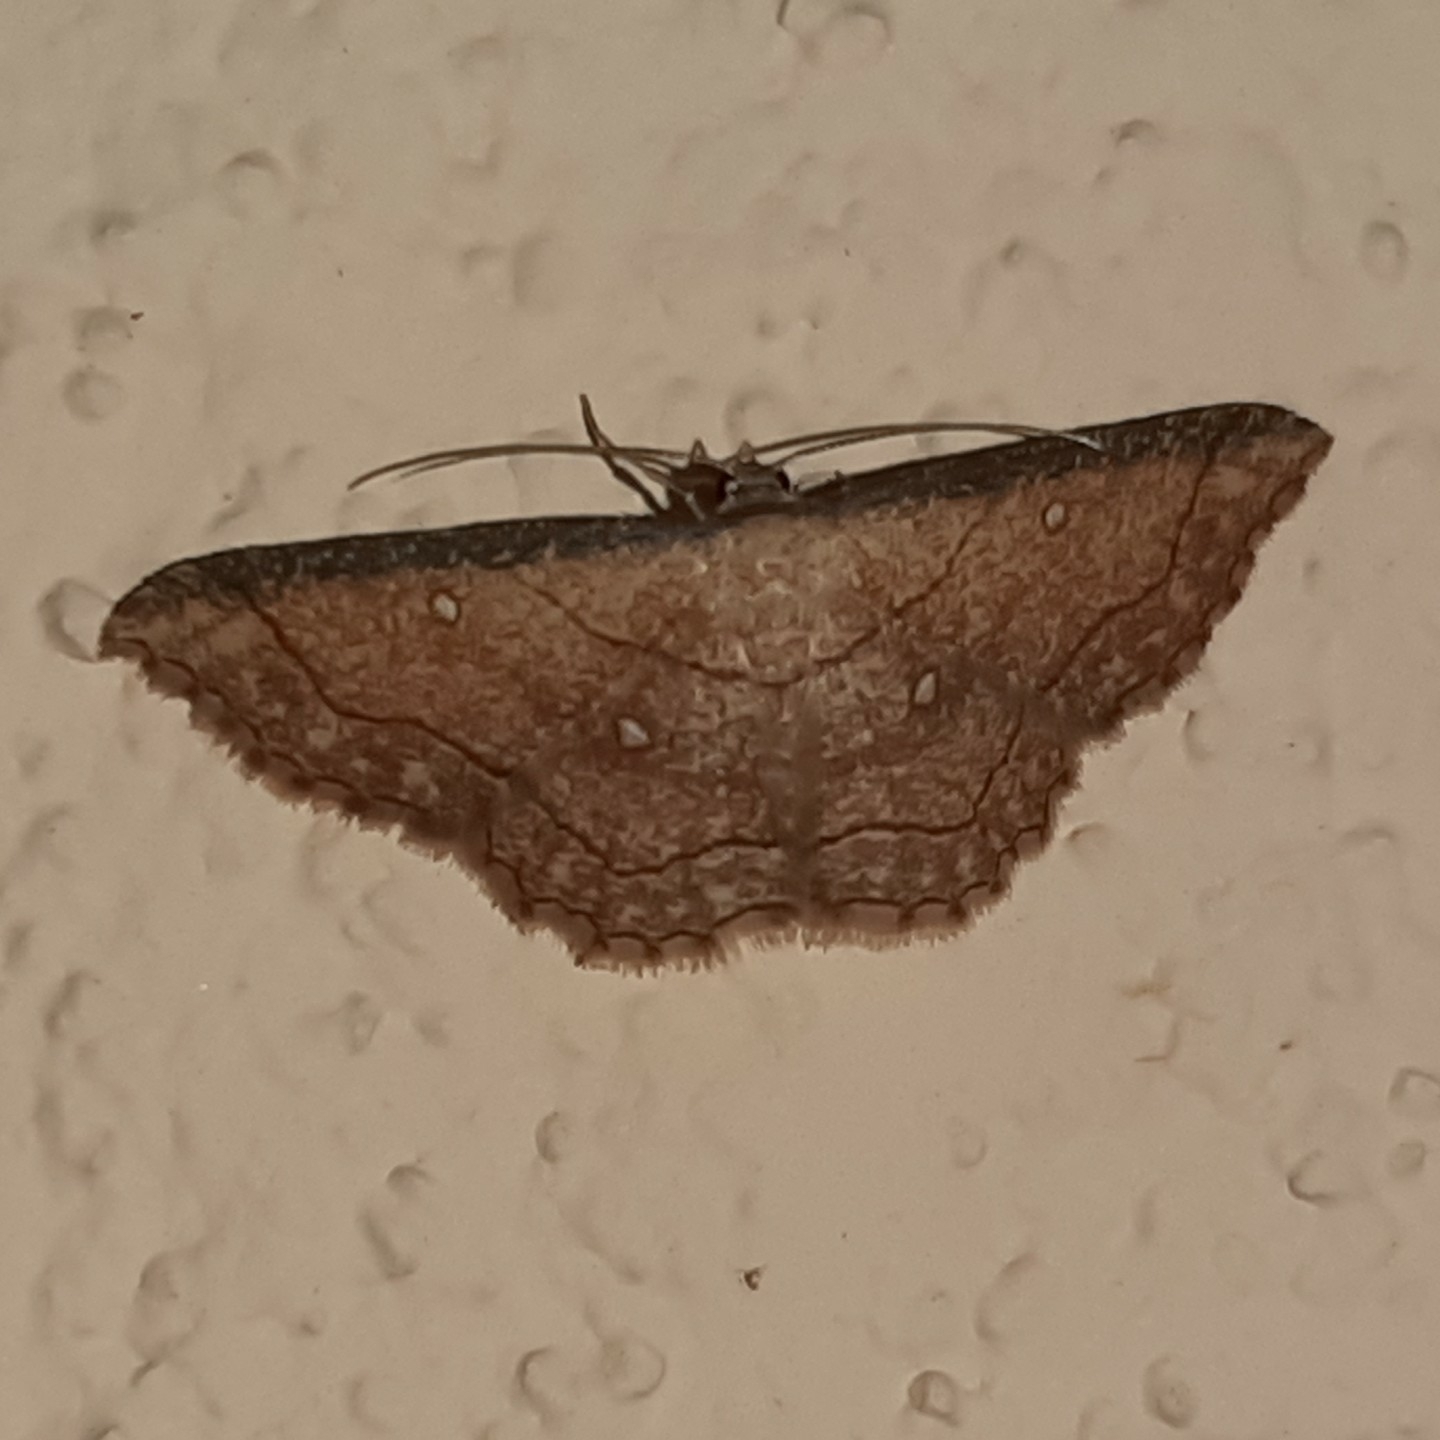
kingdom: Animalia
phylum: Arthropoda
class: Insecta
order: Lepidoptera
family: Geometridae
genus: Cyclophora
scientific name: Cyclophora coecaria
